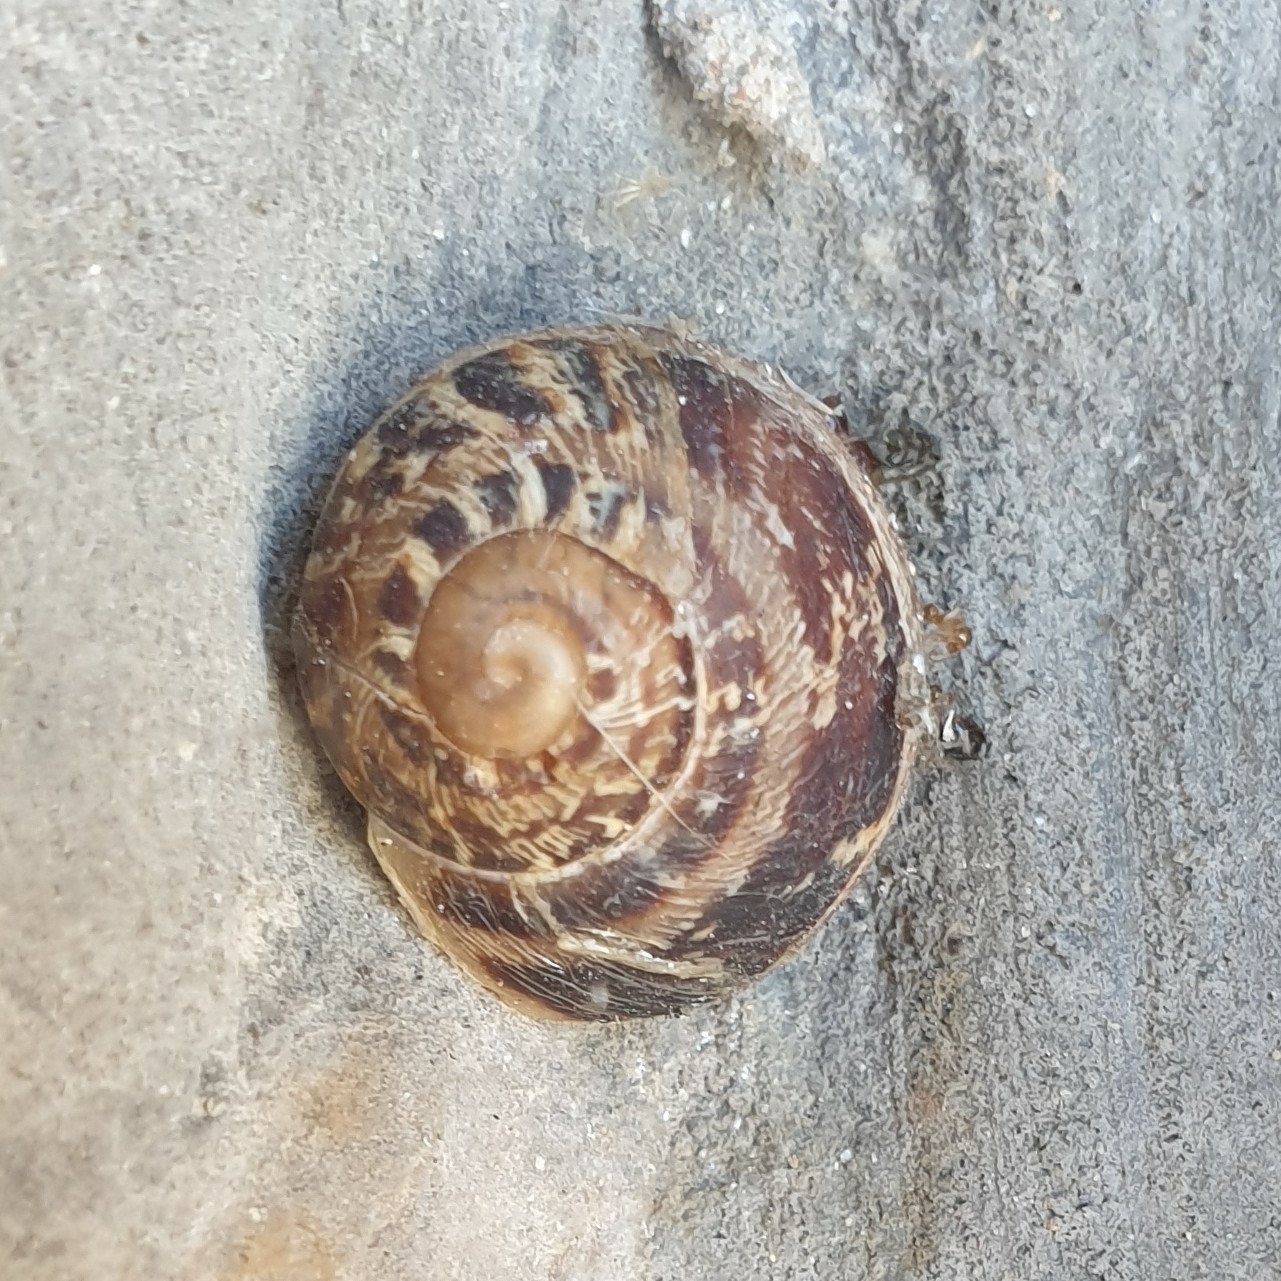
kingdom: Animalia
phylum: Mollusca
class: Gastropoda
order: Stylommatophora
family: Helicidae
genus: Cornu
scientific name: Cornu aspersum
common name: Brown garden snail
